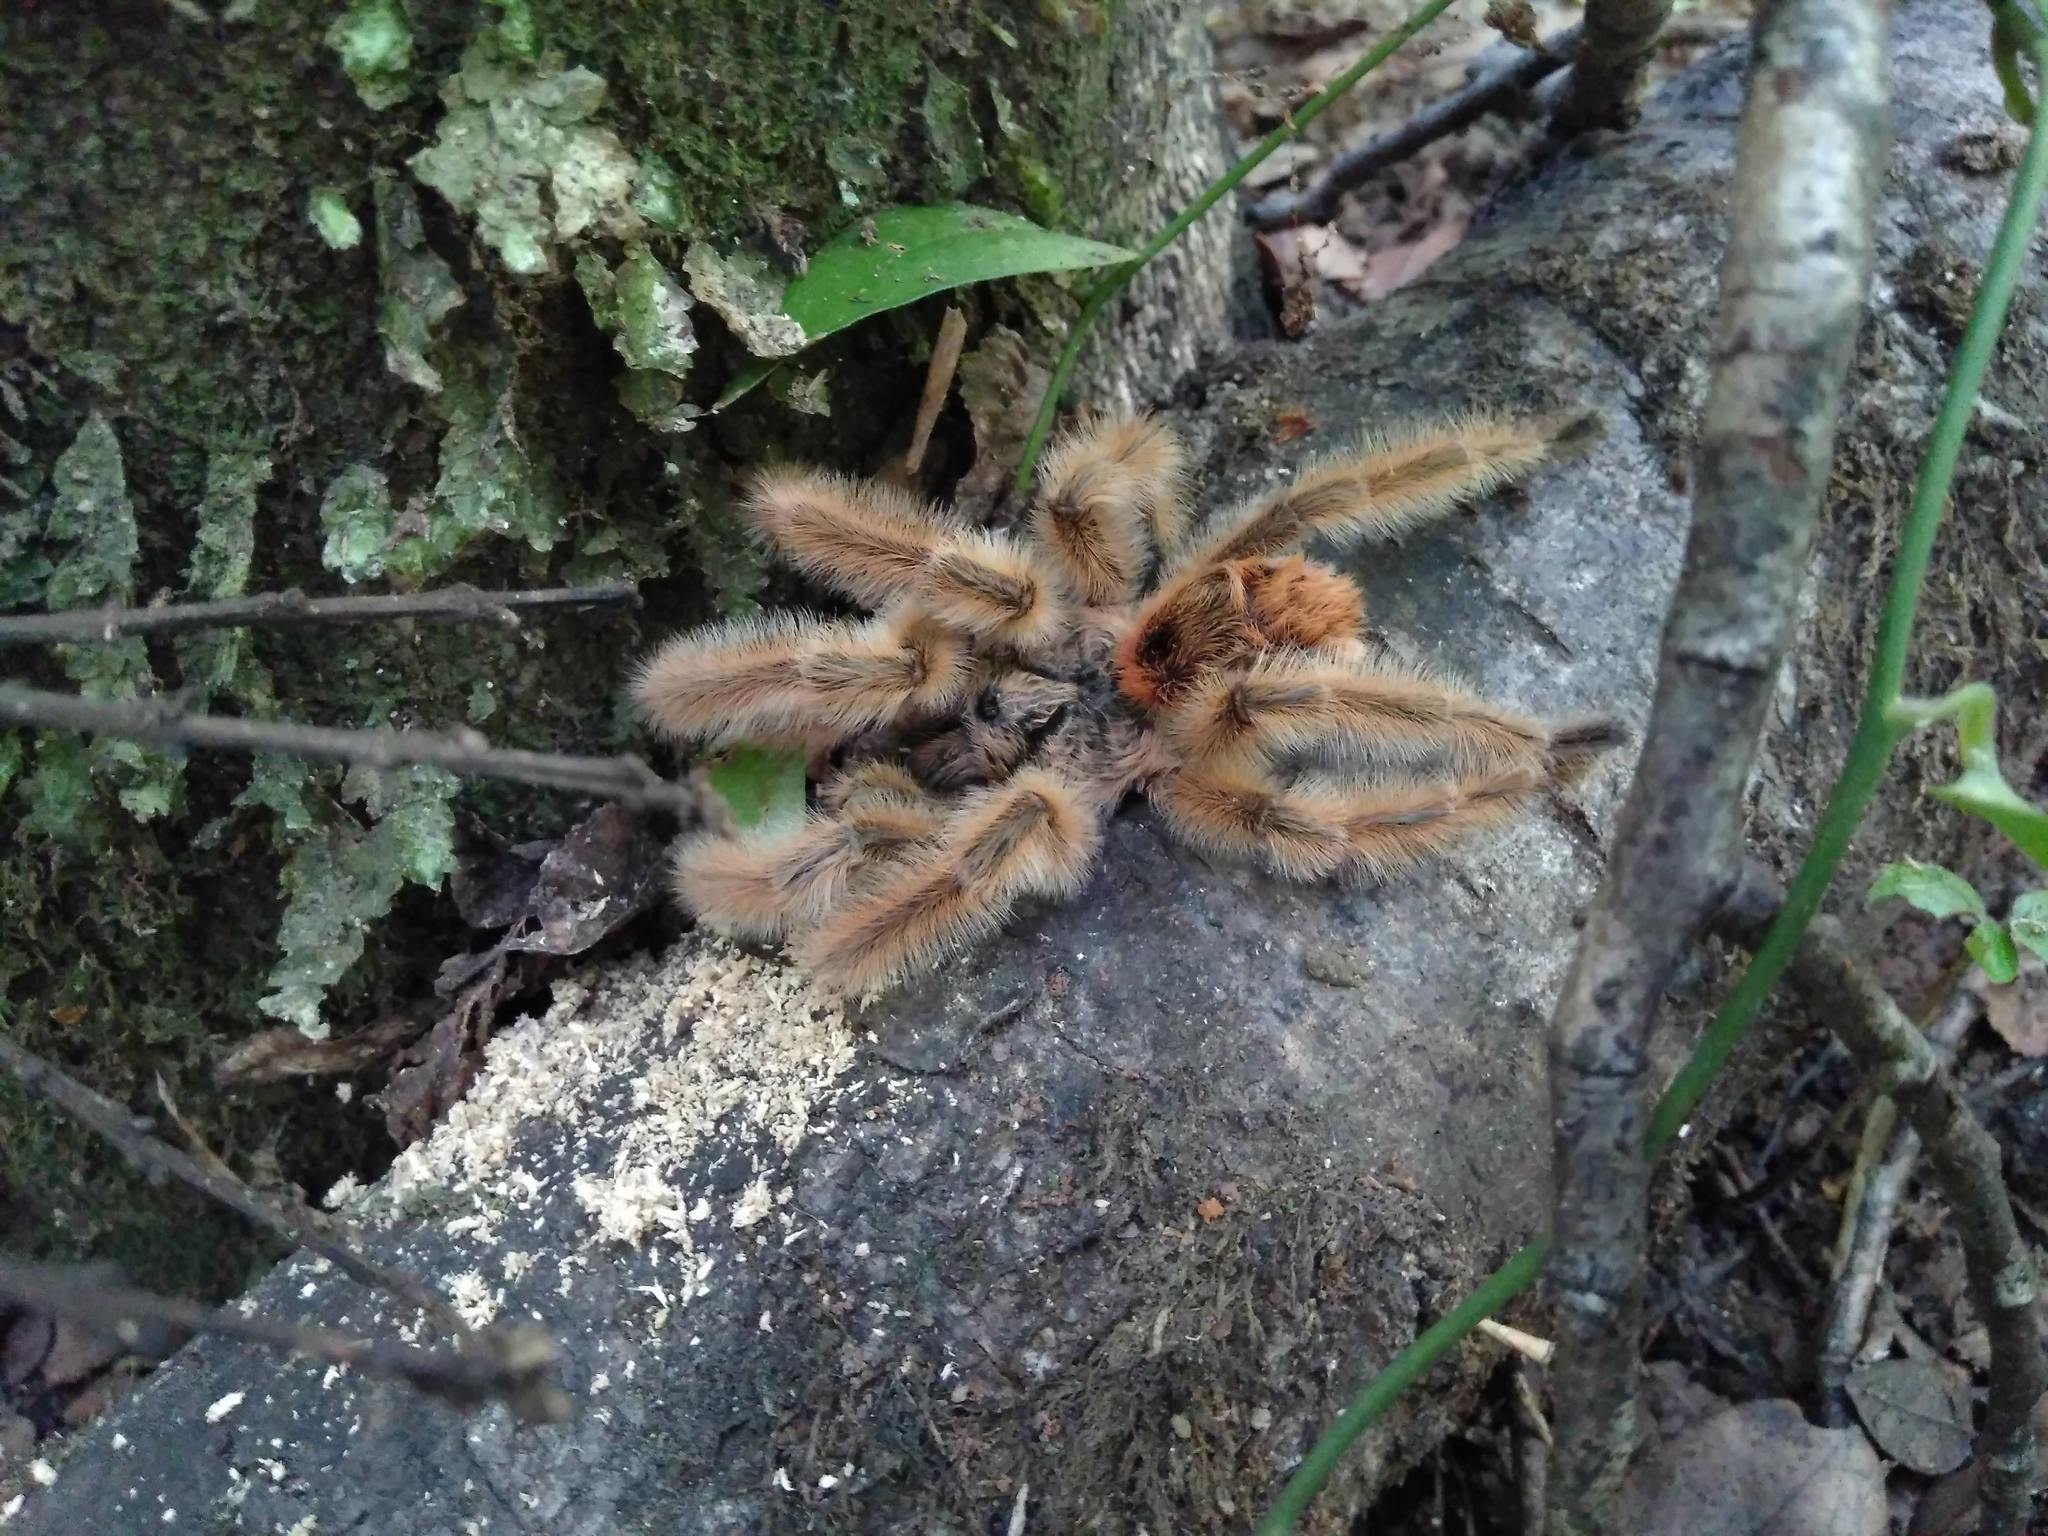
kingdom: Animalia
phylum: Arthropoda
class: Arachnida
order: Araneae
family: Theraphosidae
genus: Phrixotrichus
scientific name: Phrixotrichus vulpinus
